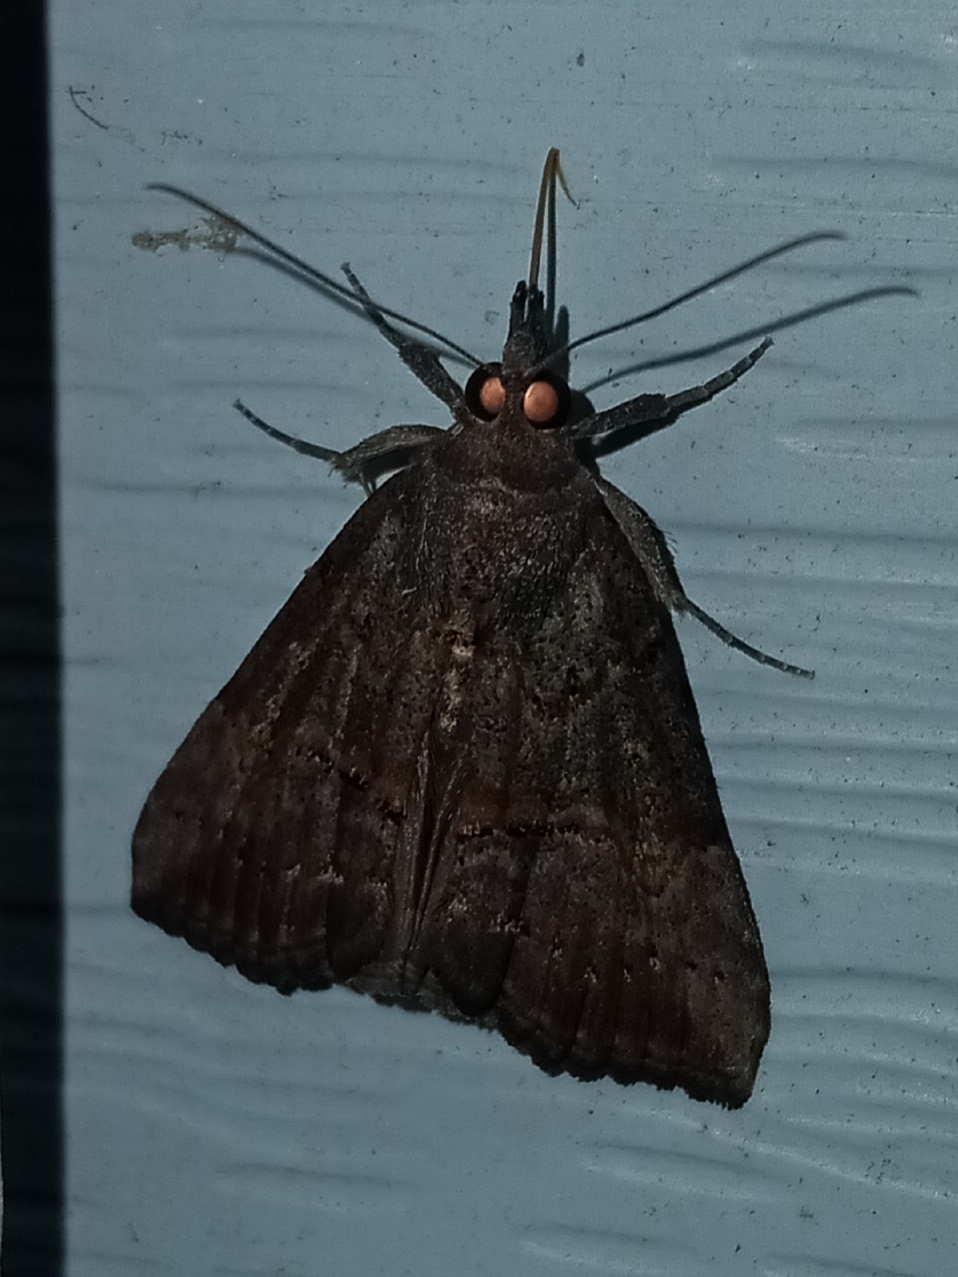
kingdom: Animalia
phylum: Arthropoda
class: Insecta
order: Lepidoptera
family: Erebidae
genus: Hypena
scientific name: Hypena scabra
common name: Green cloverworm
